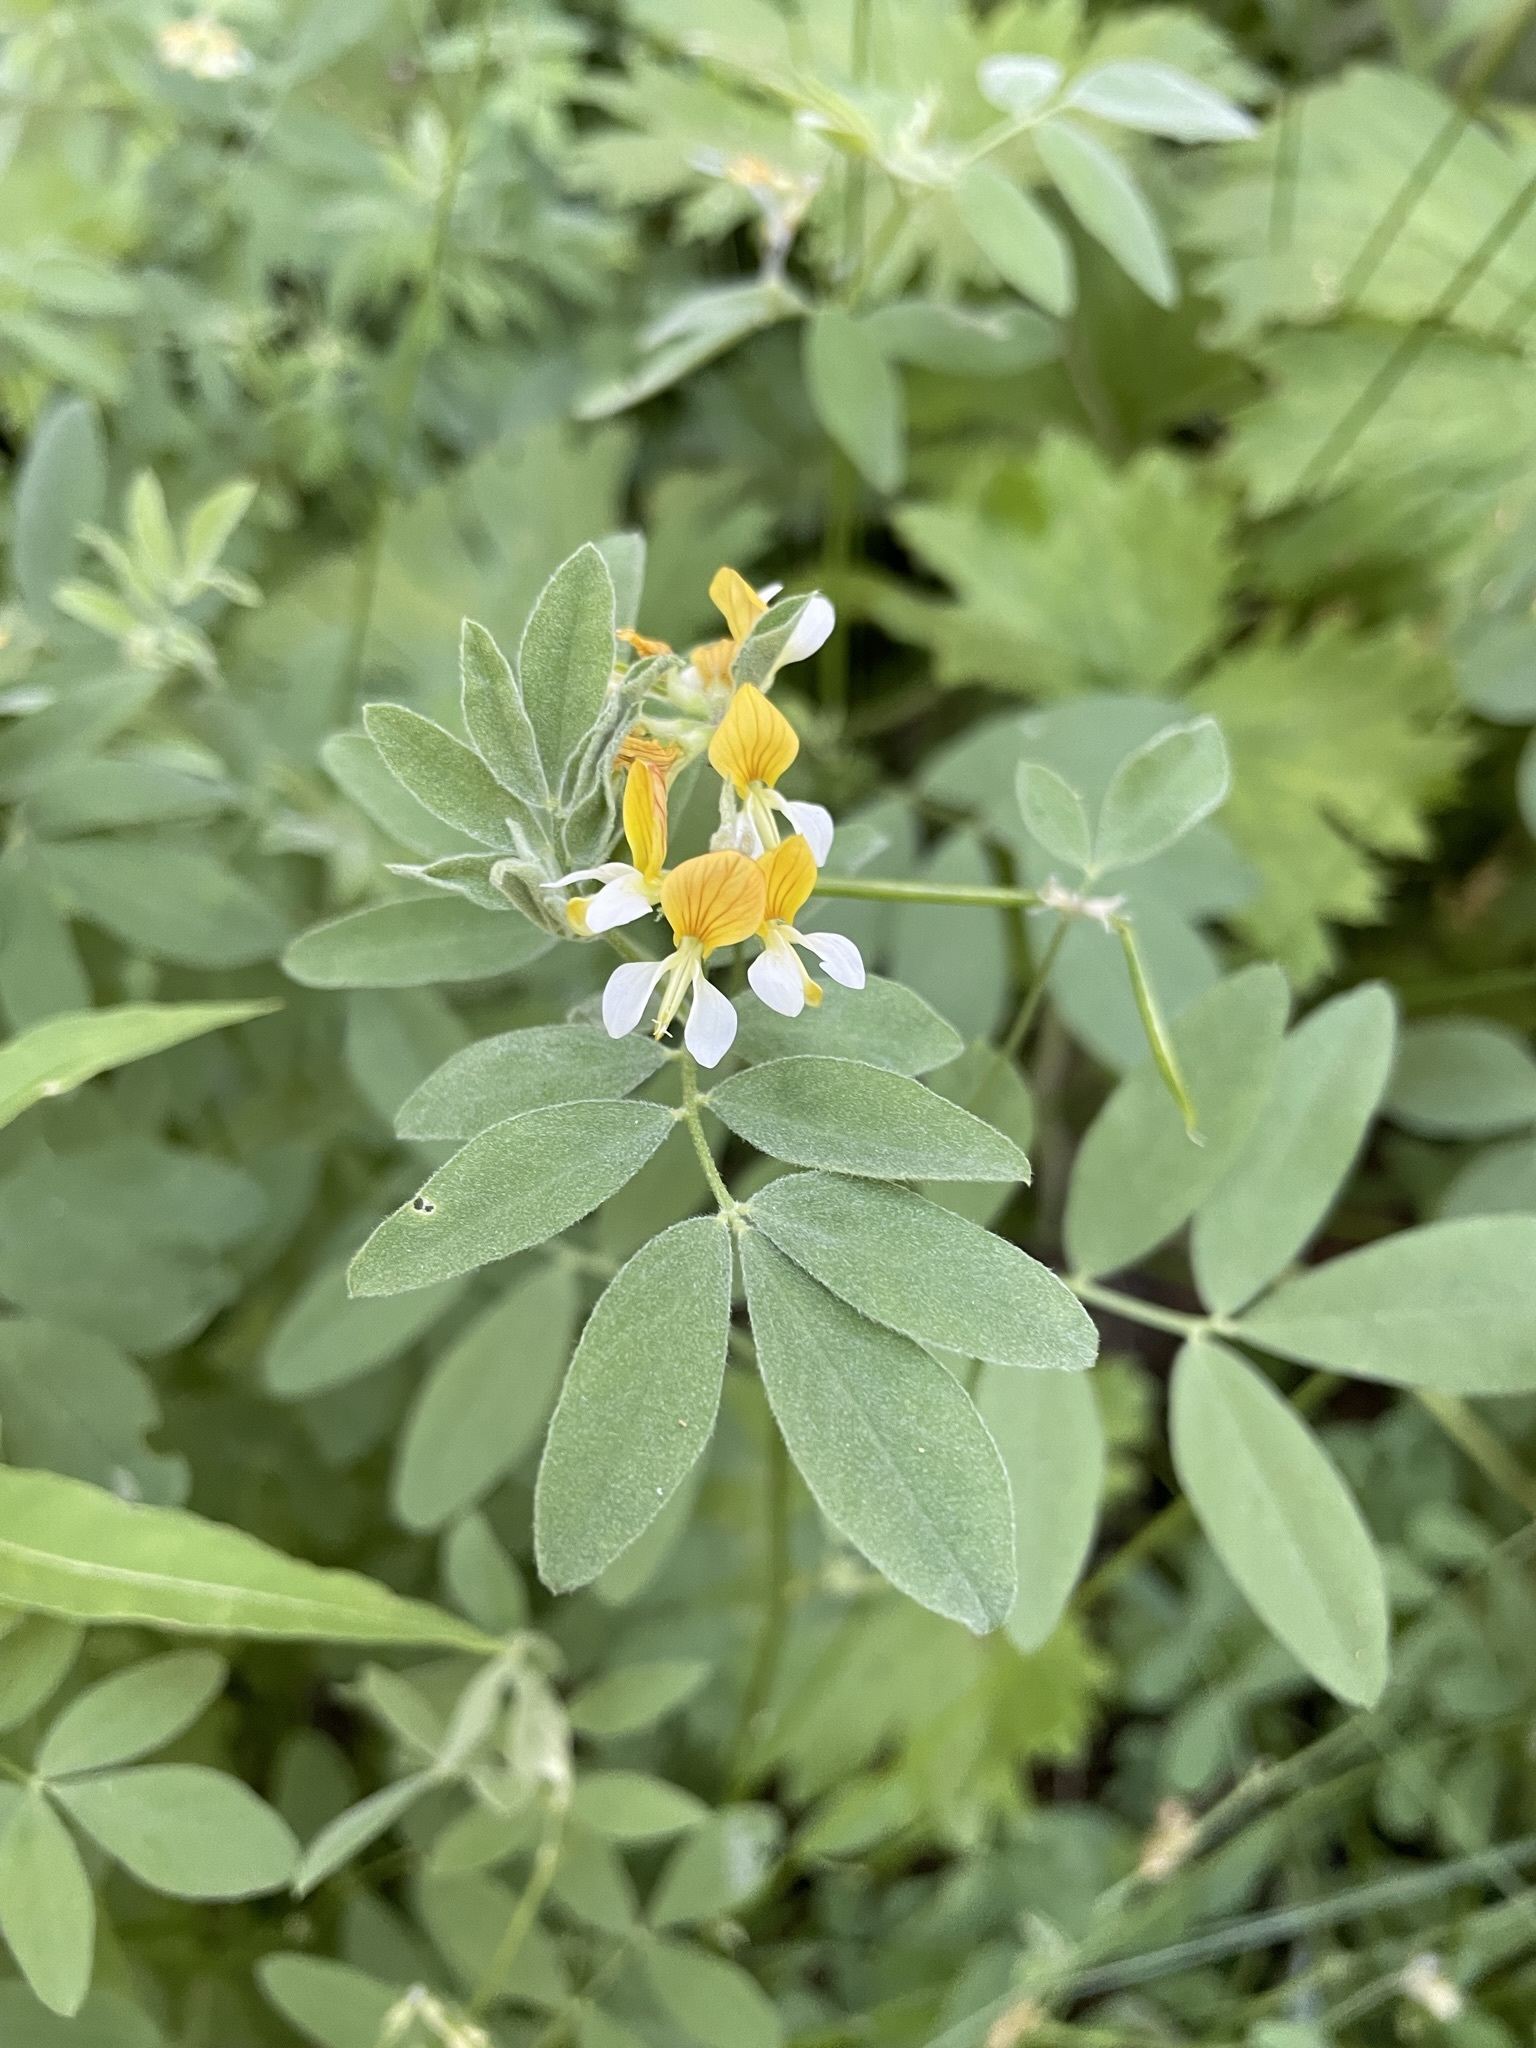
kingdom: Plantae
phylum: Tracheophyta
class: Magnoliopsida
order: Fabales
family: Fabaceae
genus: Hosackia
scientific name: Hosackia oblongifolia
